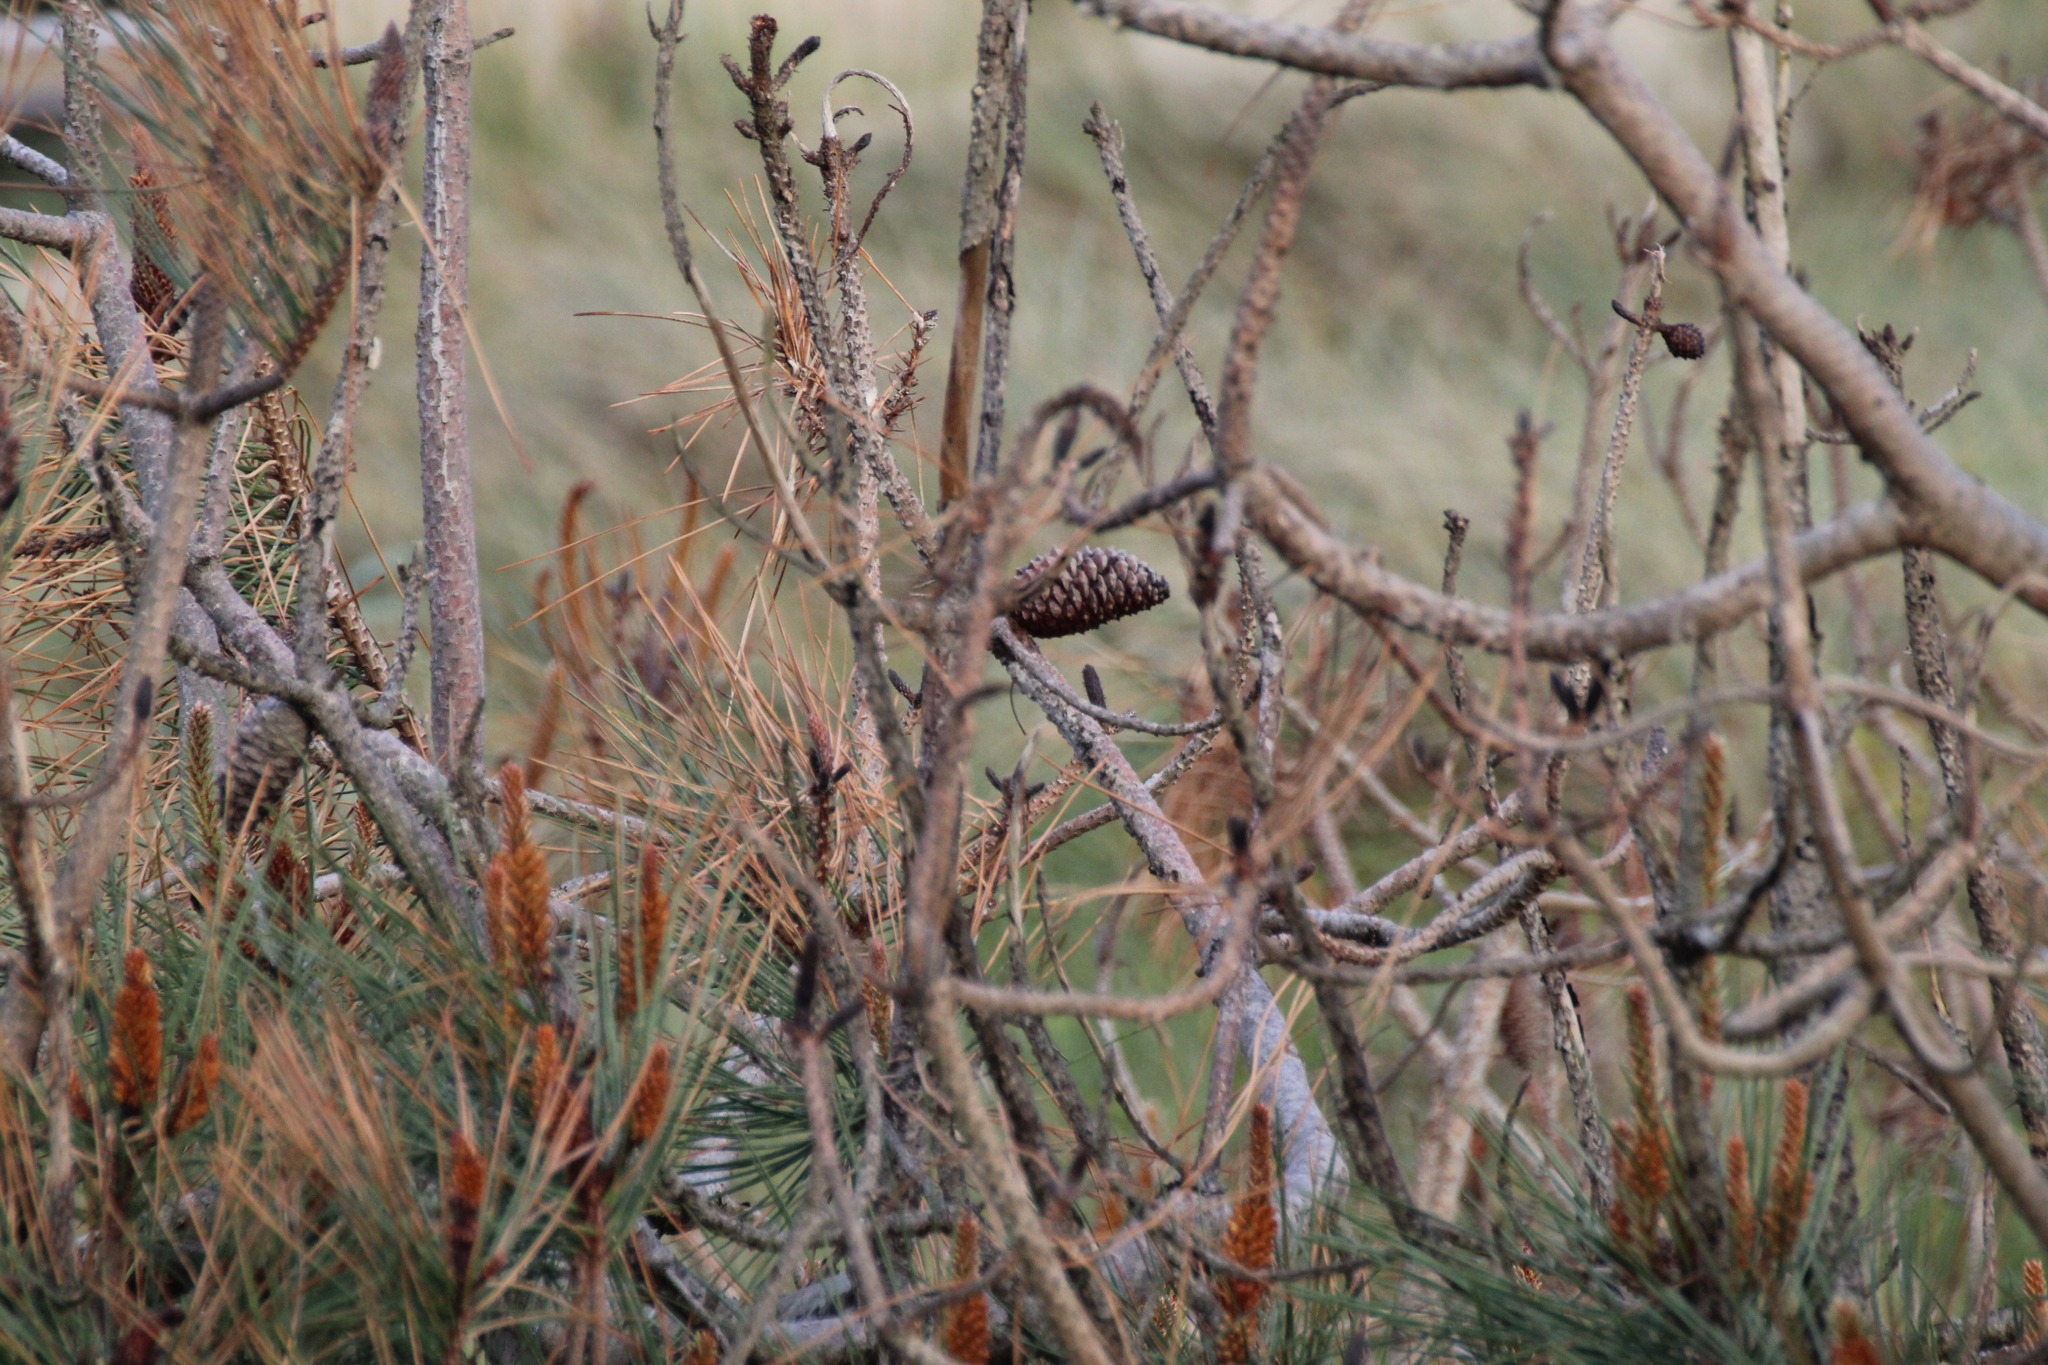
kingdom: Plantae
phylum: Tracheophyta
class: Pinopsida
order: Pinales
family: Pinaceae
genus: Pinus
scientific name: Pinus pinaster
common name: Maritime pine
